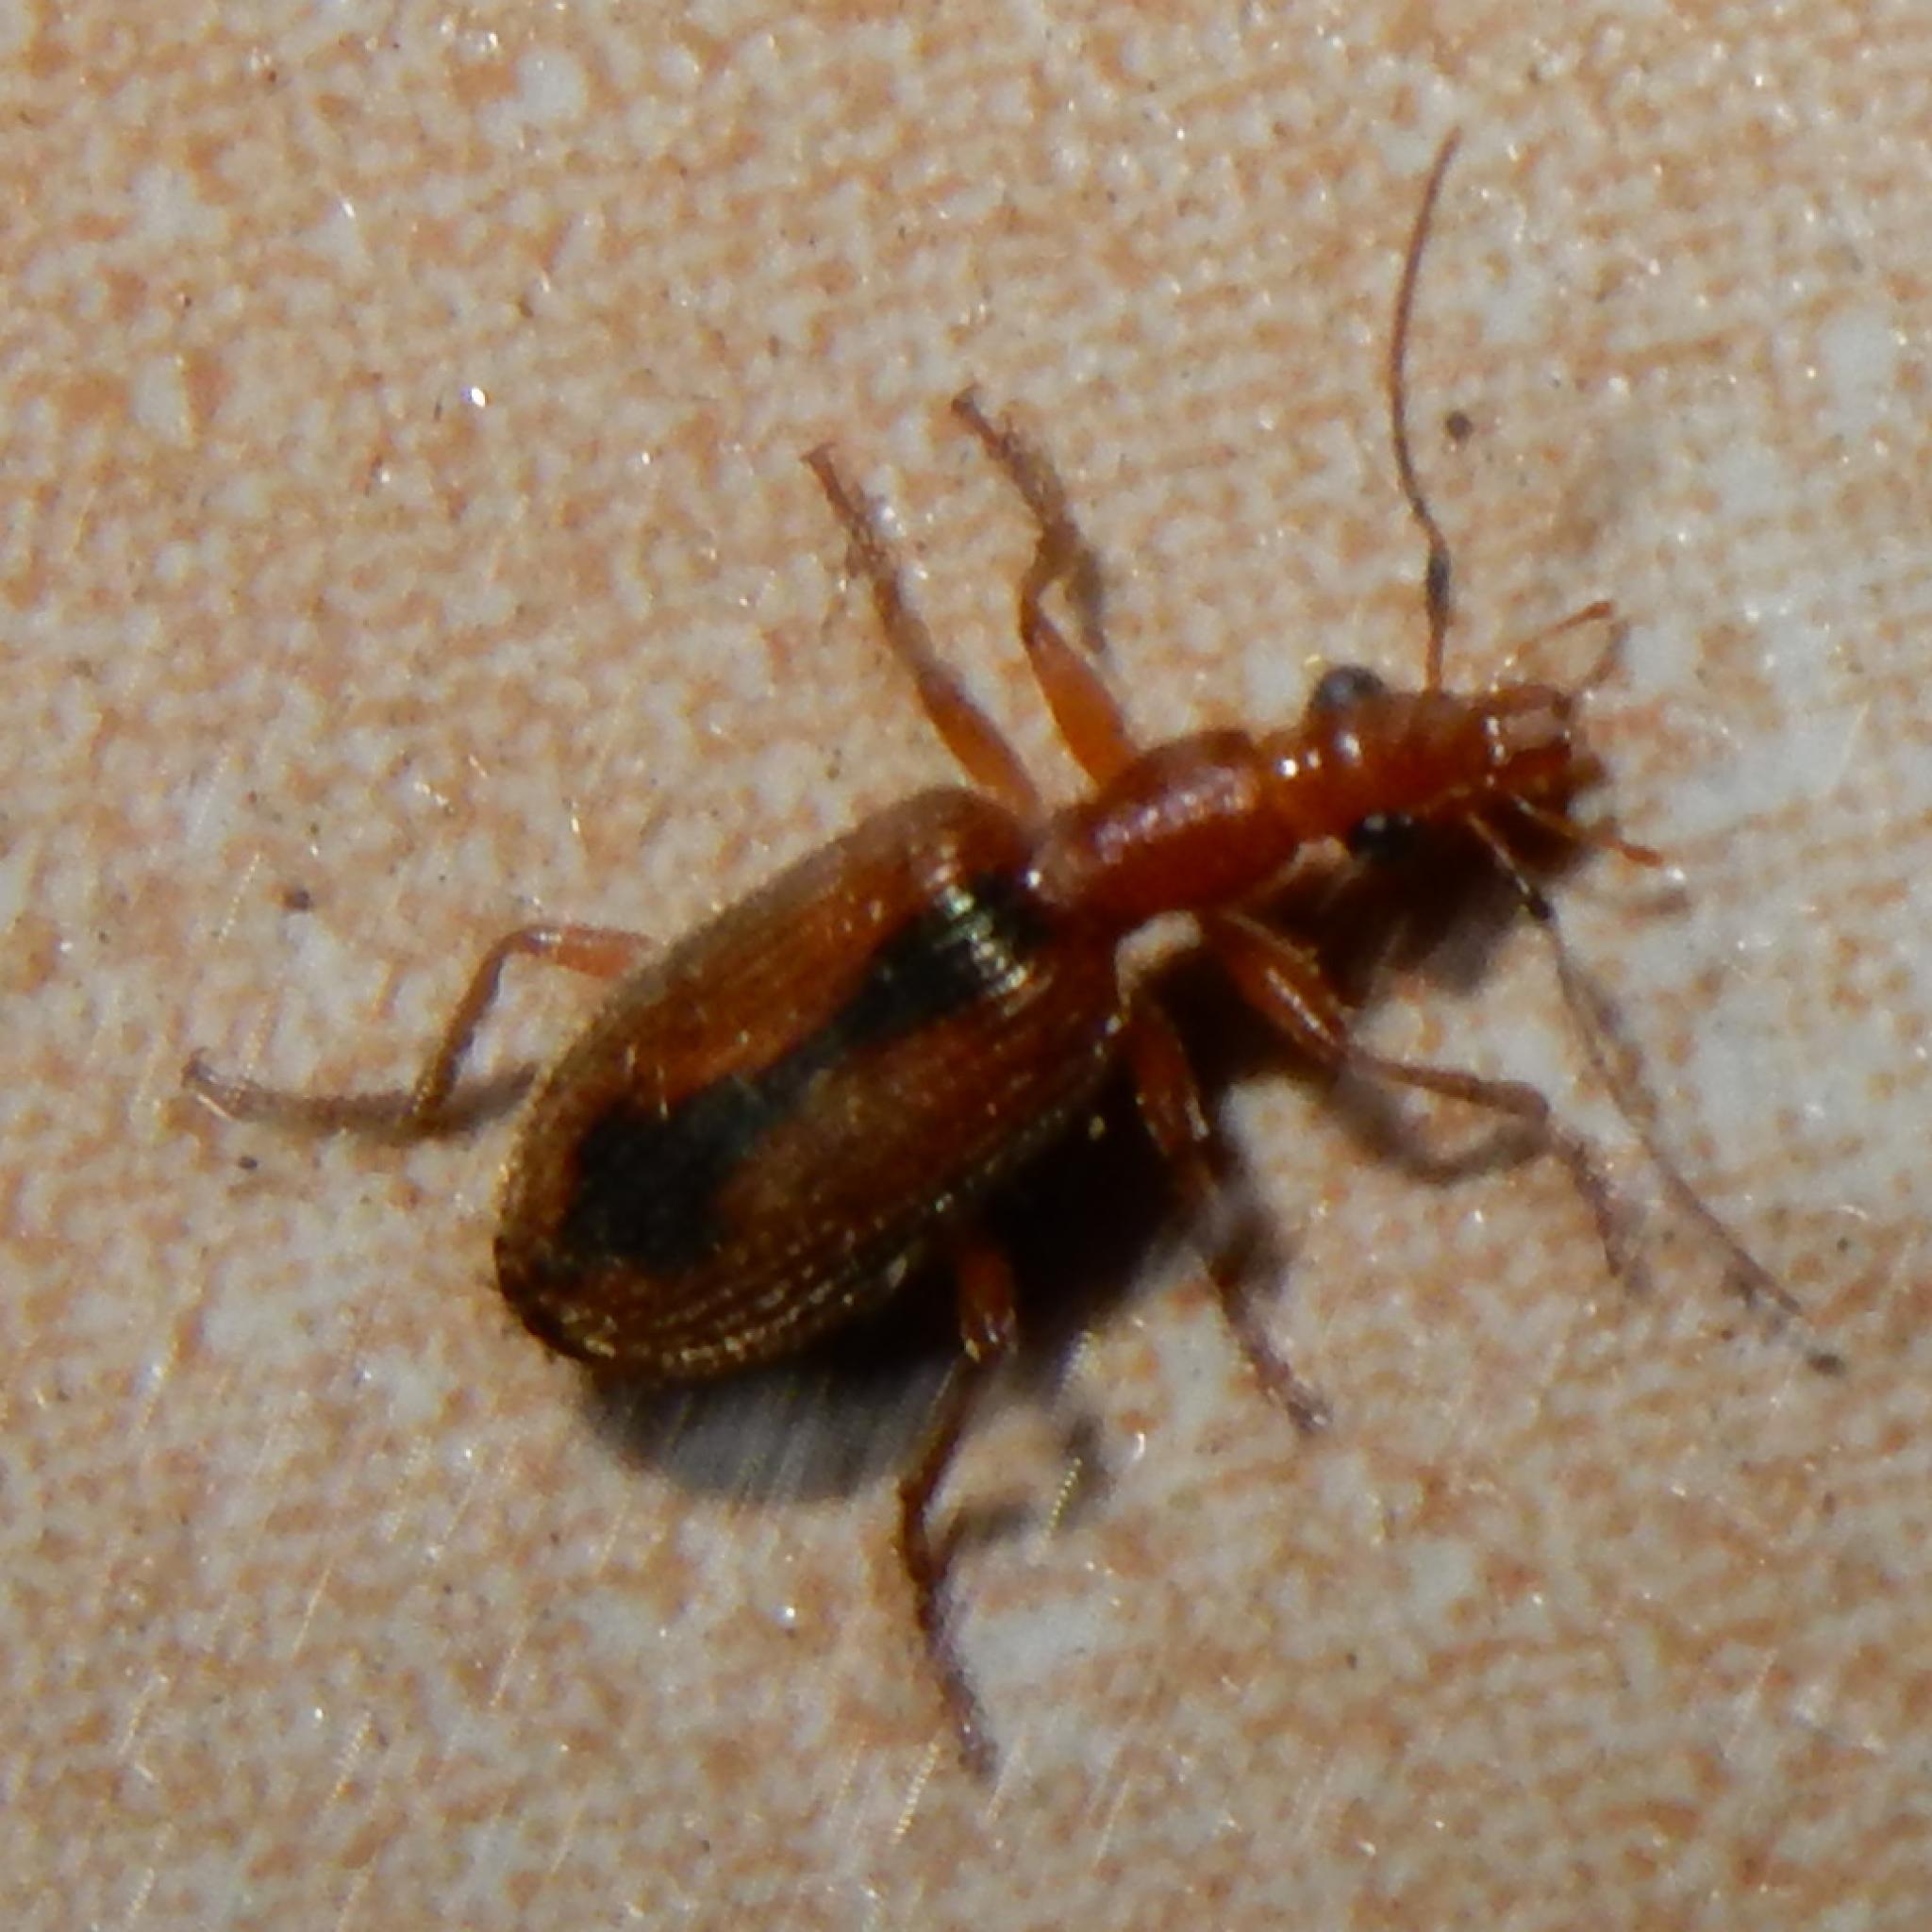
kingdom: Animalia
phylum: Arthropoda
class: Insecta
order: Coleoptera
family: Carabidae
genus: Drypta
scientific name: Drypta distincta
